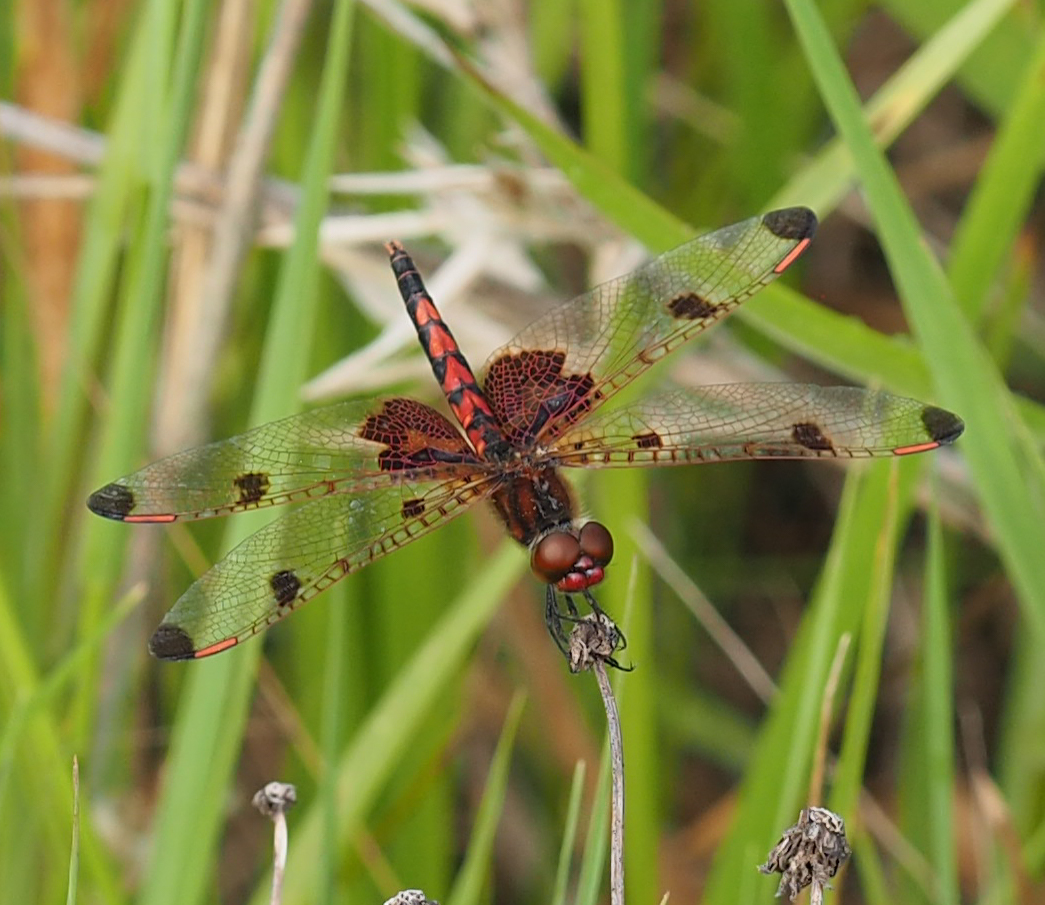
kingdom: Animalia
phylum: Arthropoda
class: Insecta
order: Odonata
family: Libellulidae
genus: Celithemis
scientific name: Celithemis elisa
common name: Calico pennant
